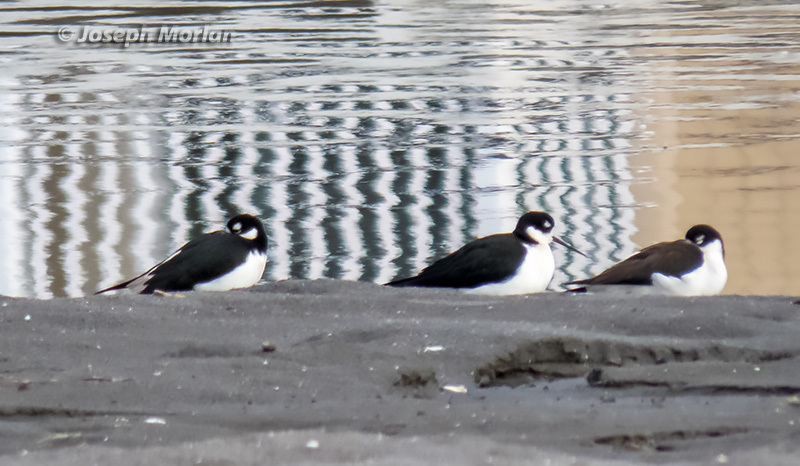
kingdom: Animalia
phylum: Chordata
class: Aves
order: Charadriiformes
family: Recurvirostridae
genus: Himantopus
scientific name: Himantopus mexicanus
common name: Black-necked stilt
